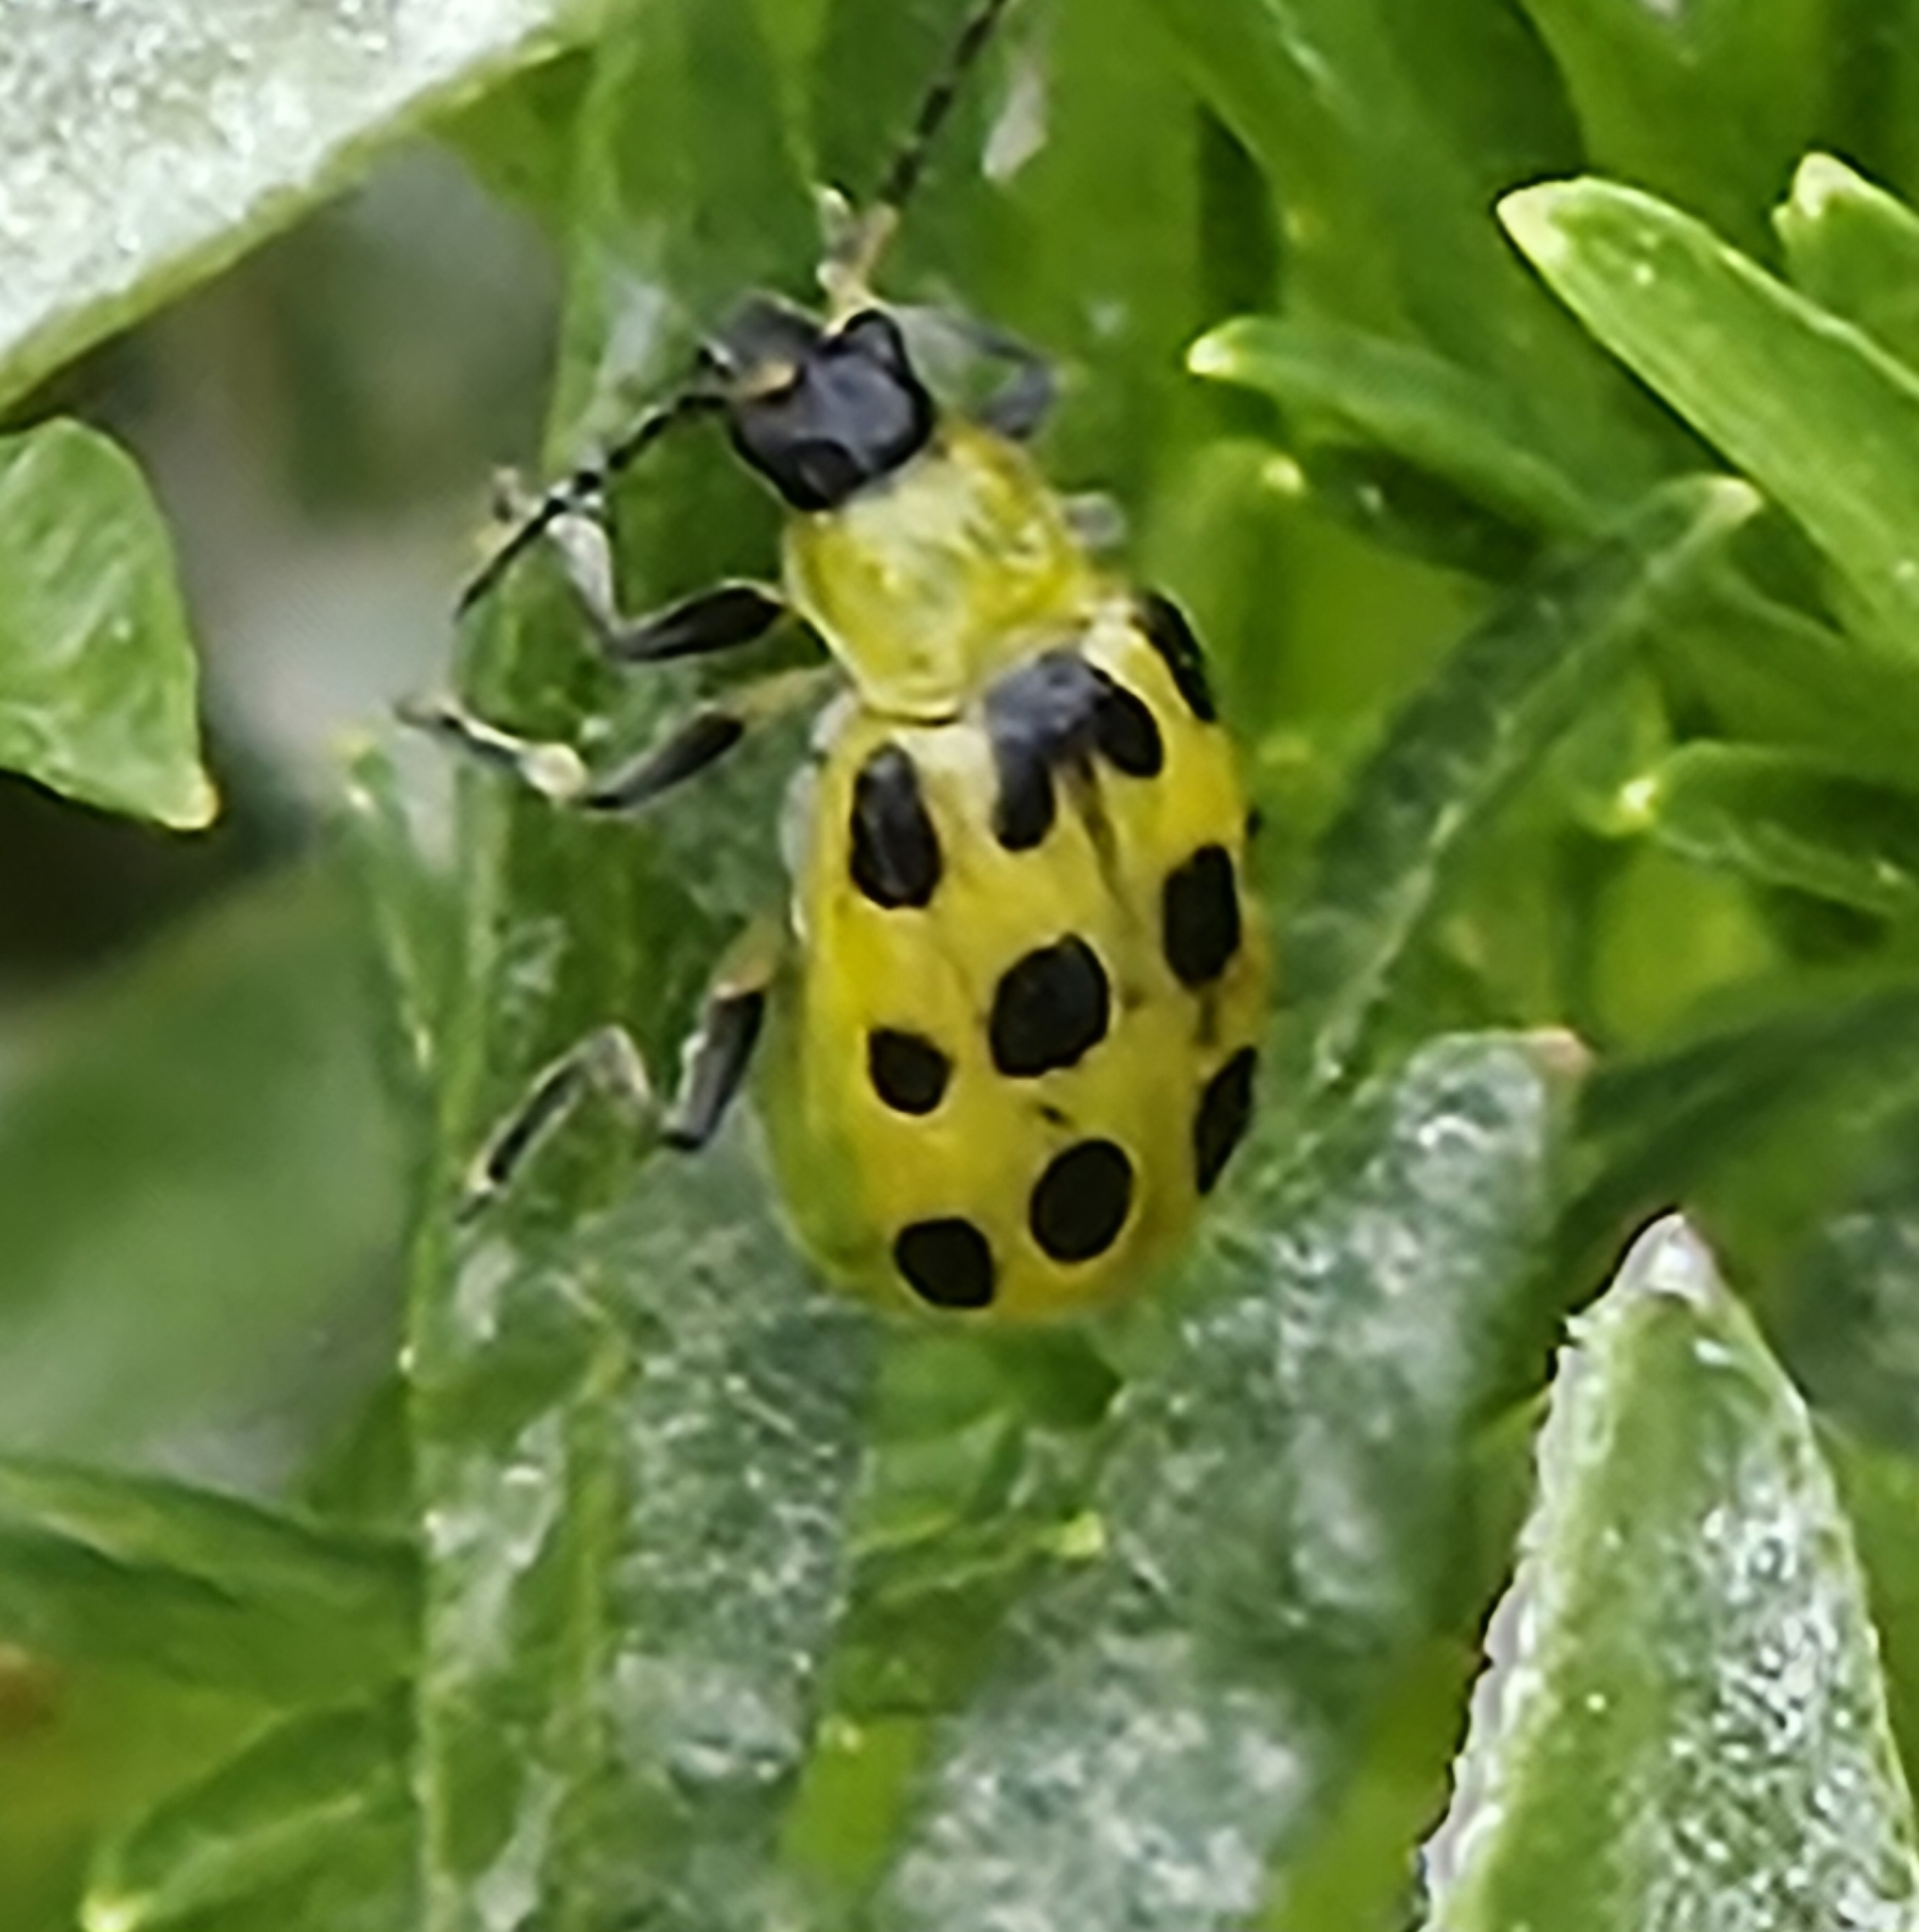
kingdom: Animalia
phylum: Arthropoda
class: Insecta
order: Coleoptera
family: Chrysomelidae
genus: Diabrotica
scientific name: Diabrotica undecimpunctata
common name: Spotted cucumber beetle
